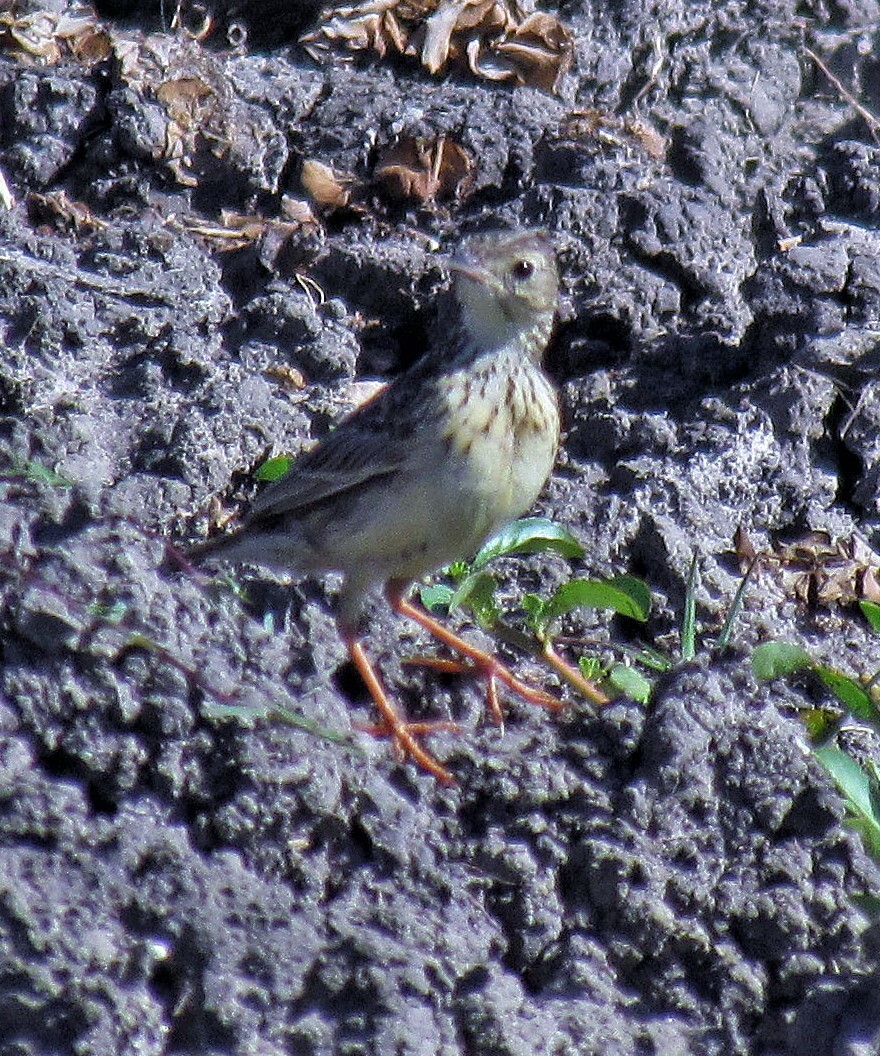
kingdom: Animalia
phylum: Chordata
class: Aves
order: Passeriformes
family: Motacillidae
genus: Anthus
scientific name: Anthus chii
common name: Yellowish pipit
